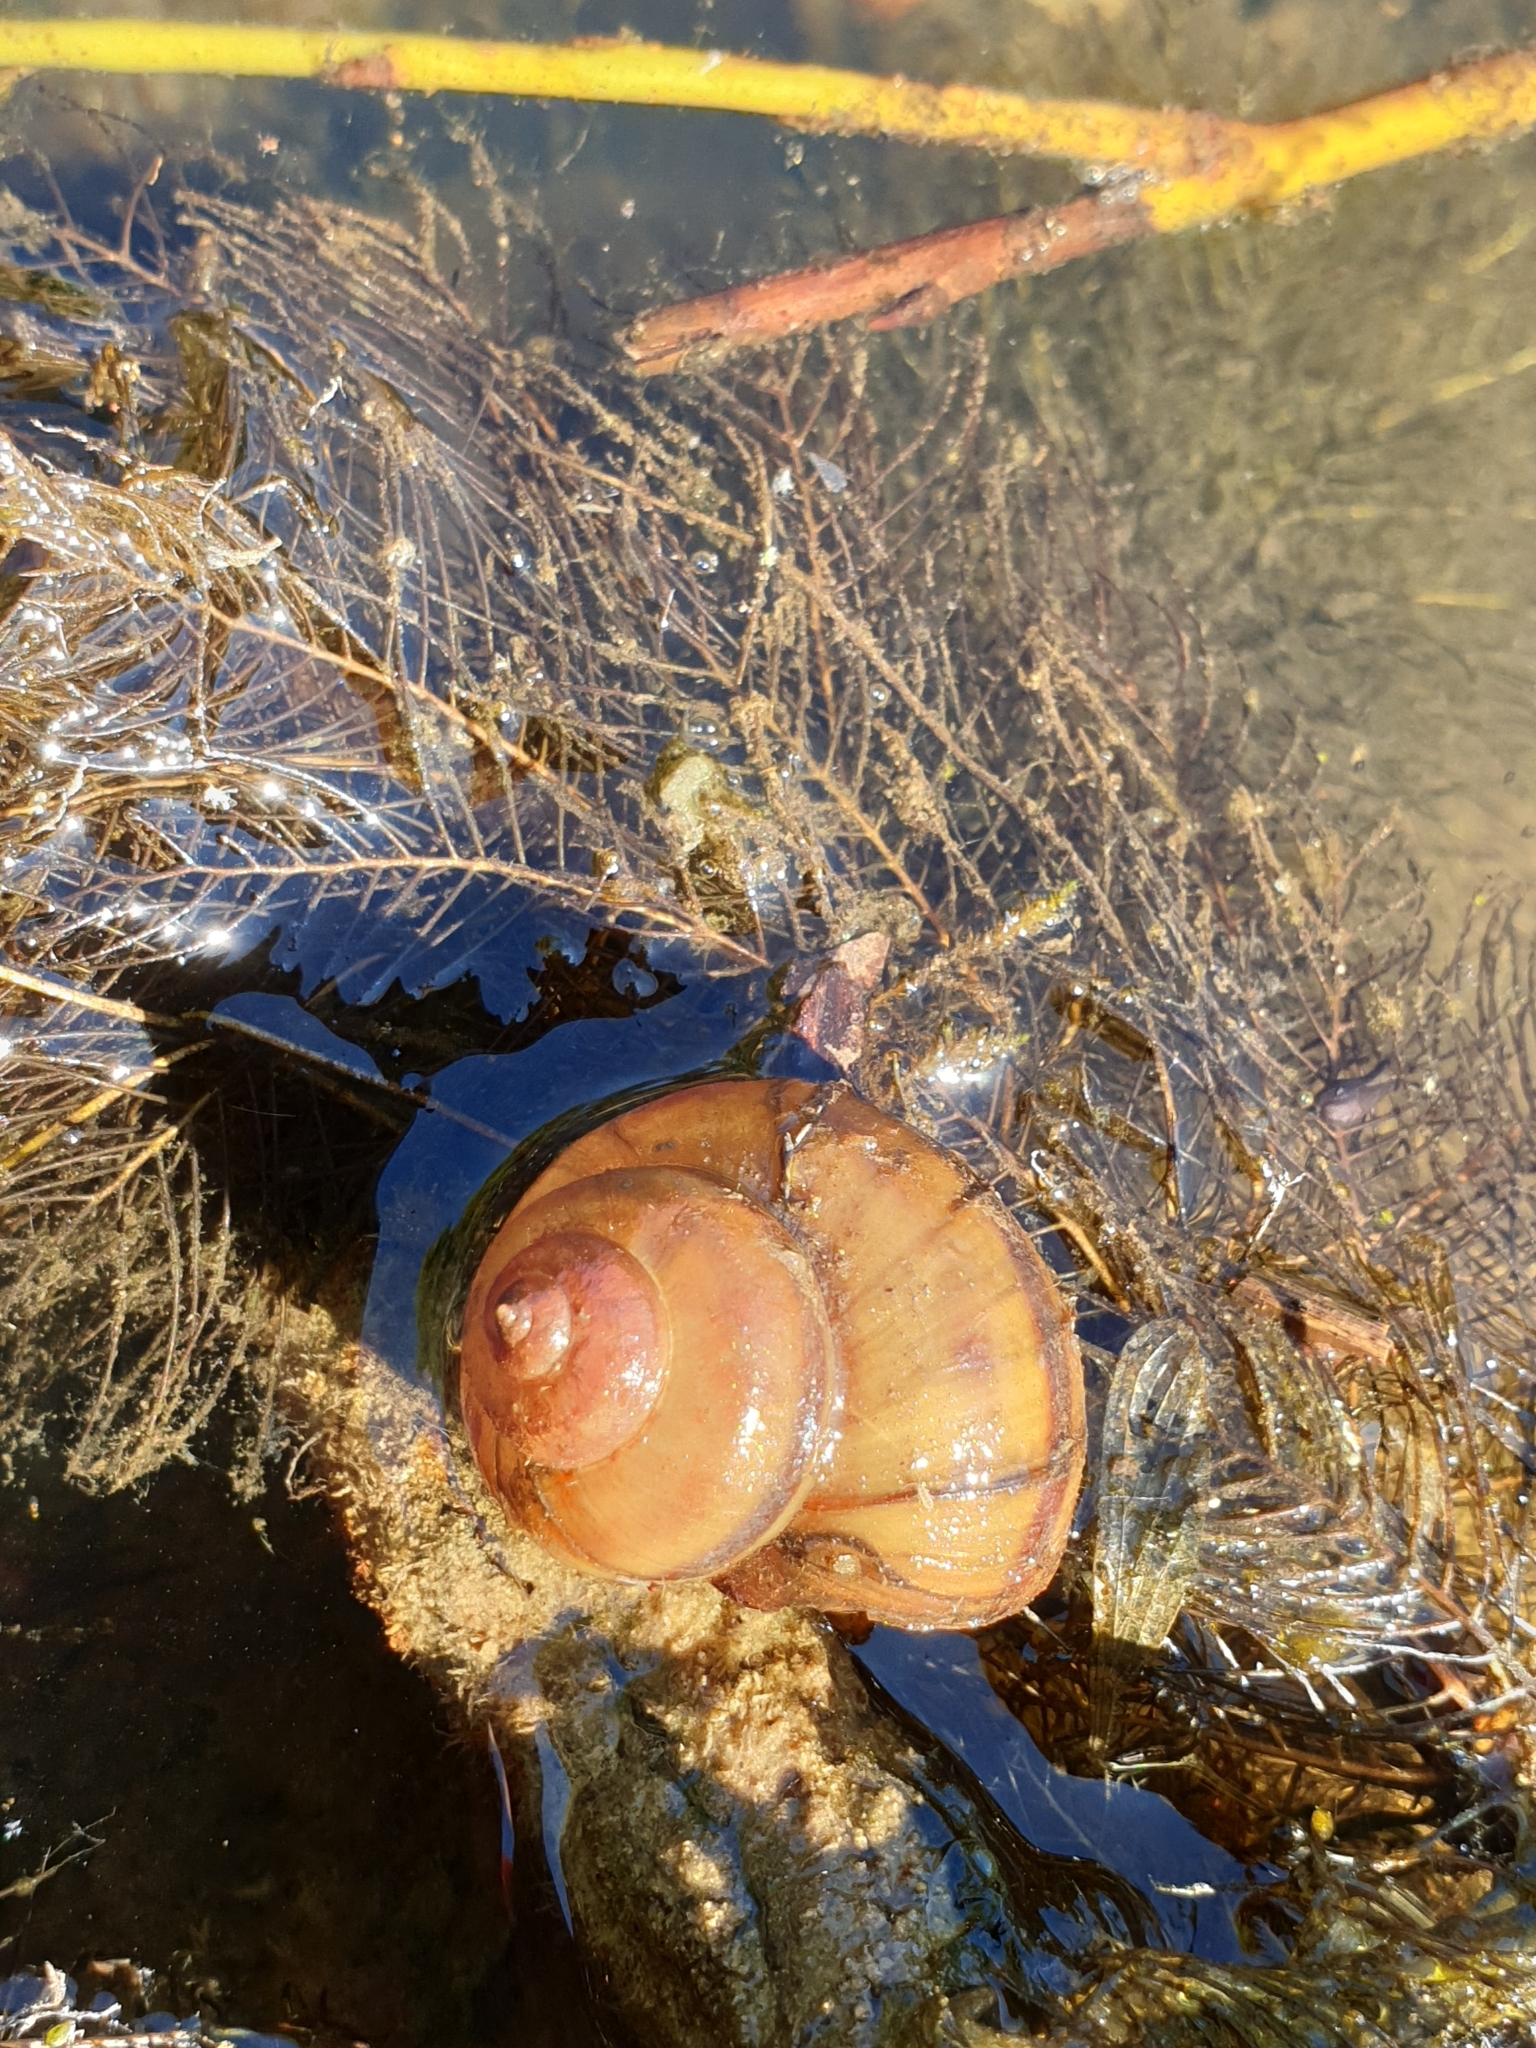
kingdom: Animalia
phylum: Mollusca
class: Gastropoda
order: Architaenioglossa
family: Viviparidae
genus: Viviparus
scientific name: Viviparus contectus
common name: Lister's river snail
